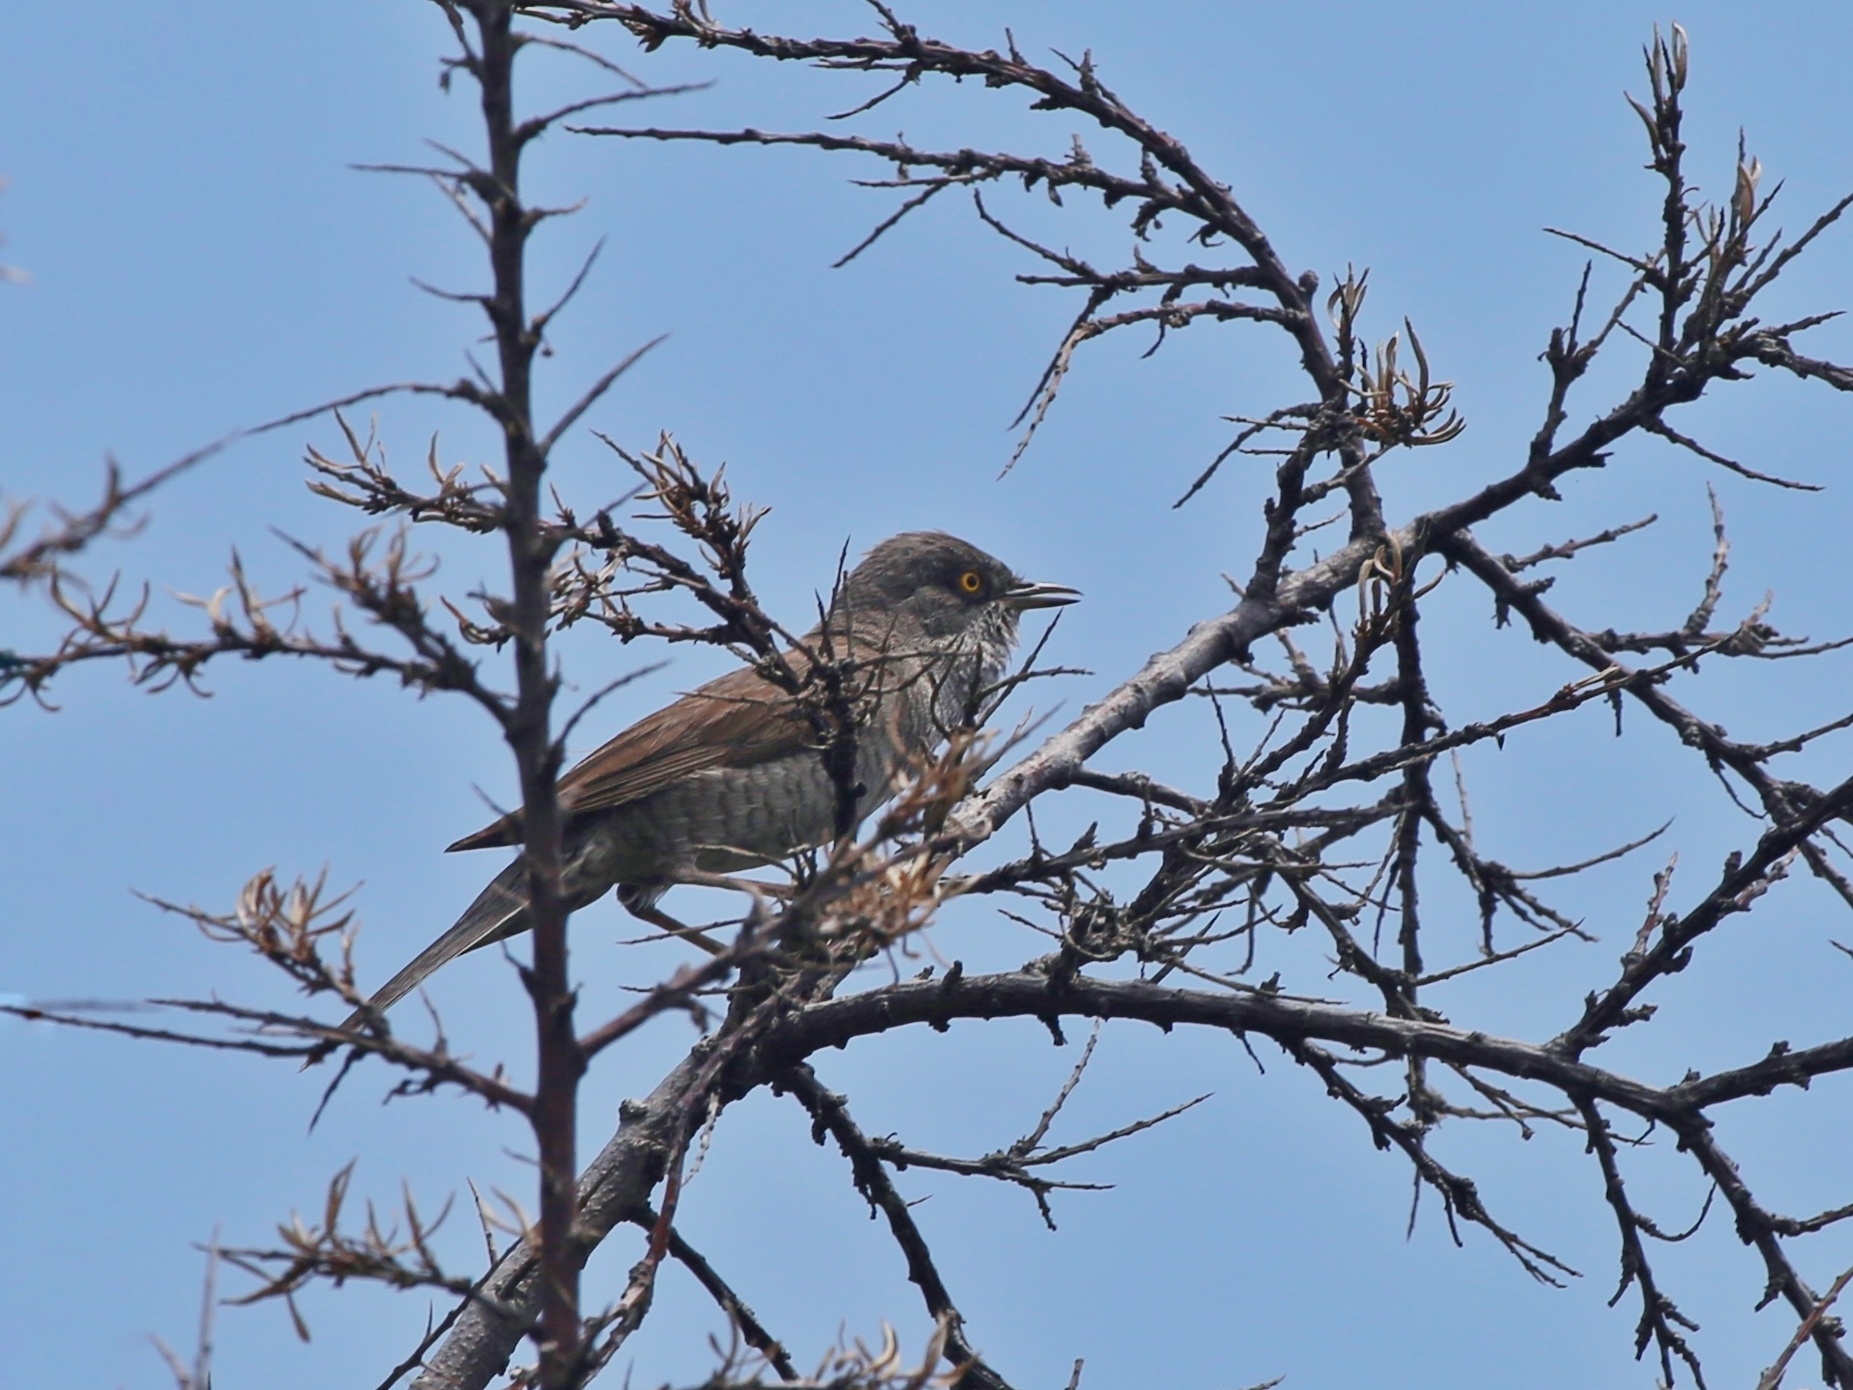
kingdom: Animalia
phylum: Chordata
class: Aves
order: Passeriformes
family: Sylviidae
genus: Sylvia
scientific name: Sylvia nisoria
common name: Barred warbler
